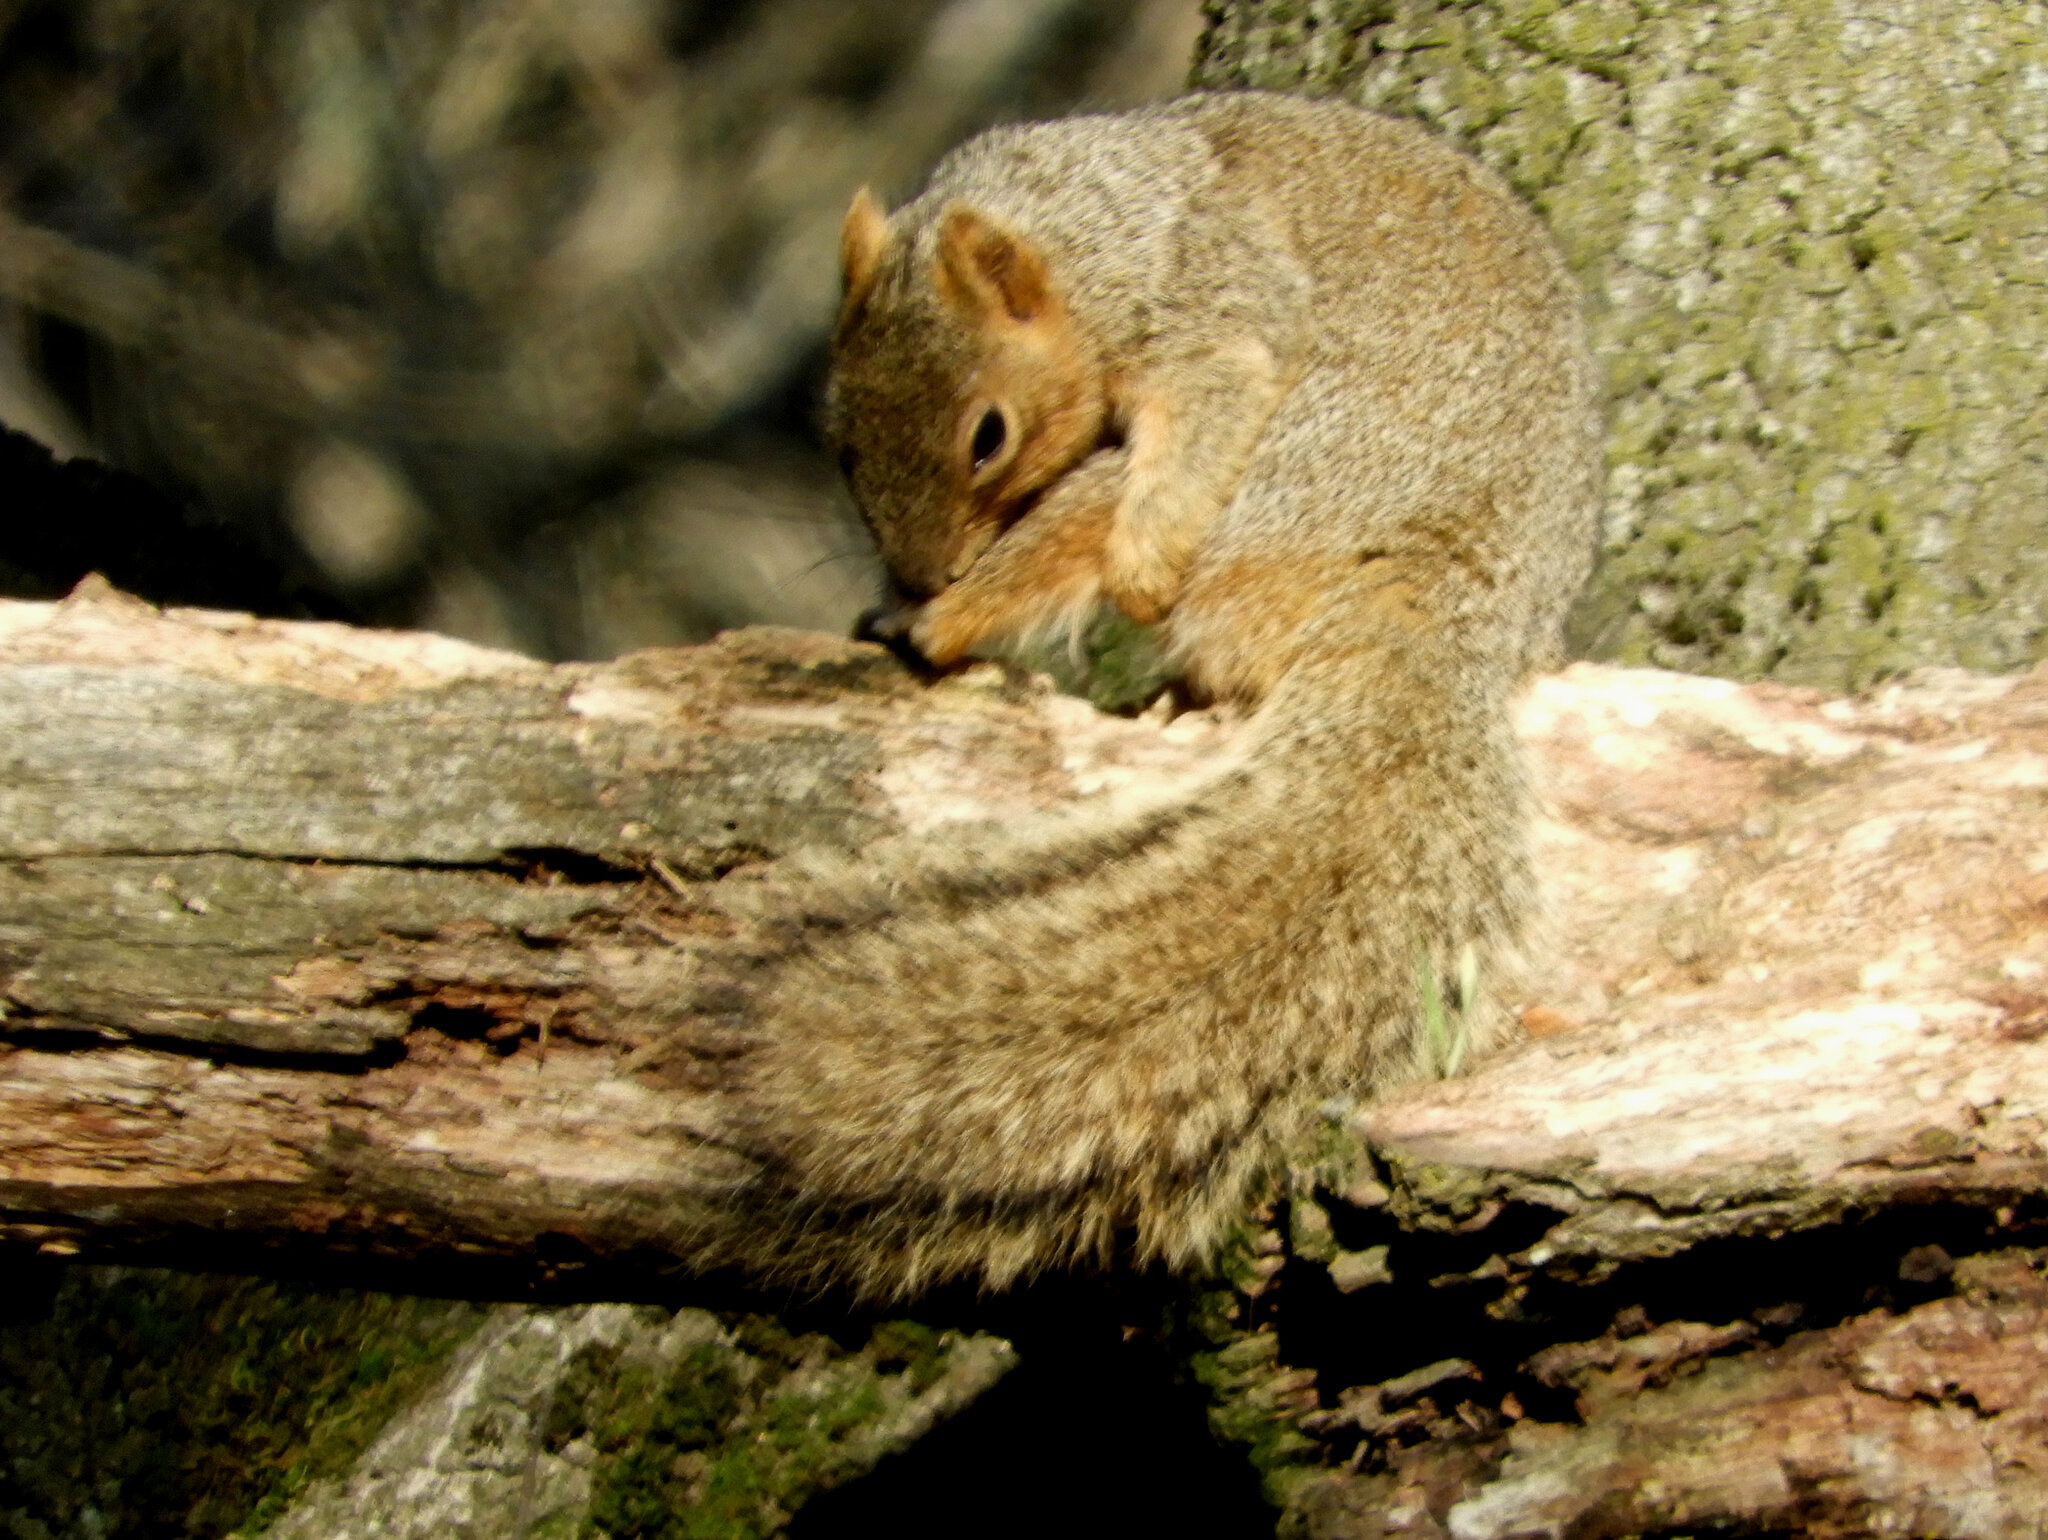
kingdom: Animalia
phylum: Chordata
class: Mammalia
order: Rodentia
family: Sciuridae
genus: Sciurus
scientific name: Sciurus niger
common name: Fox squirrel
